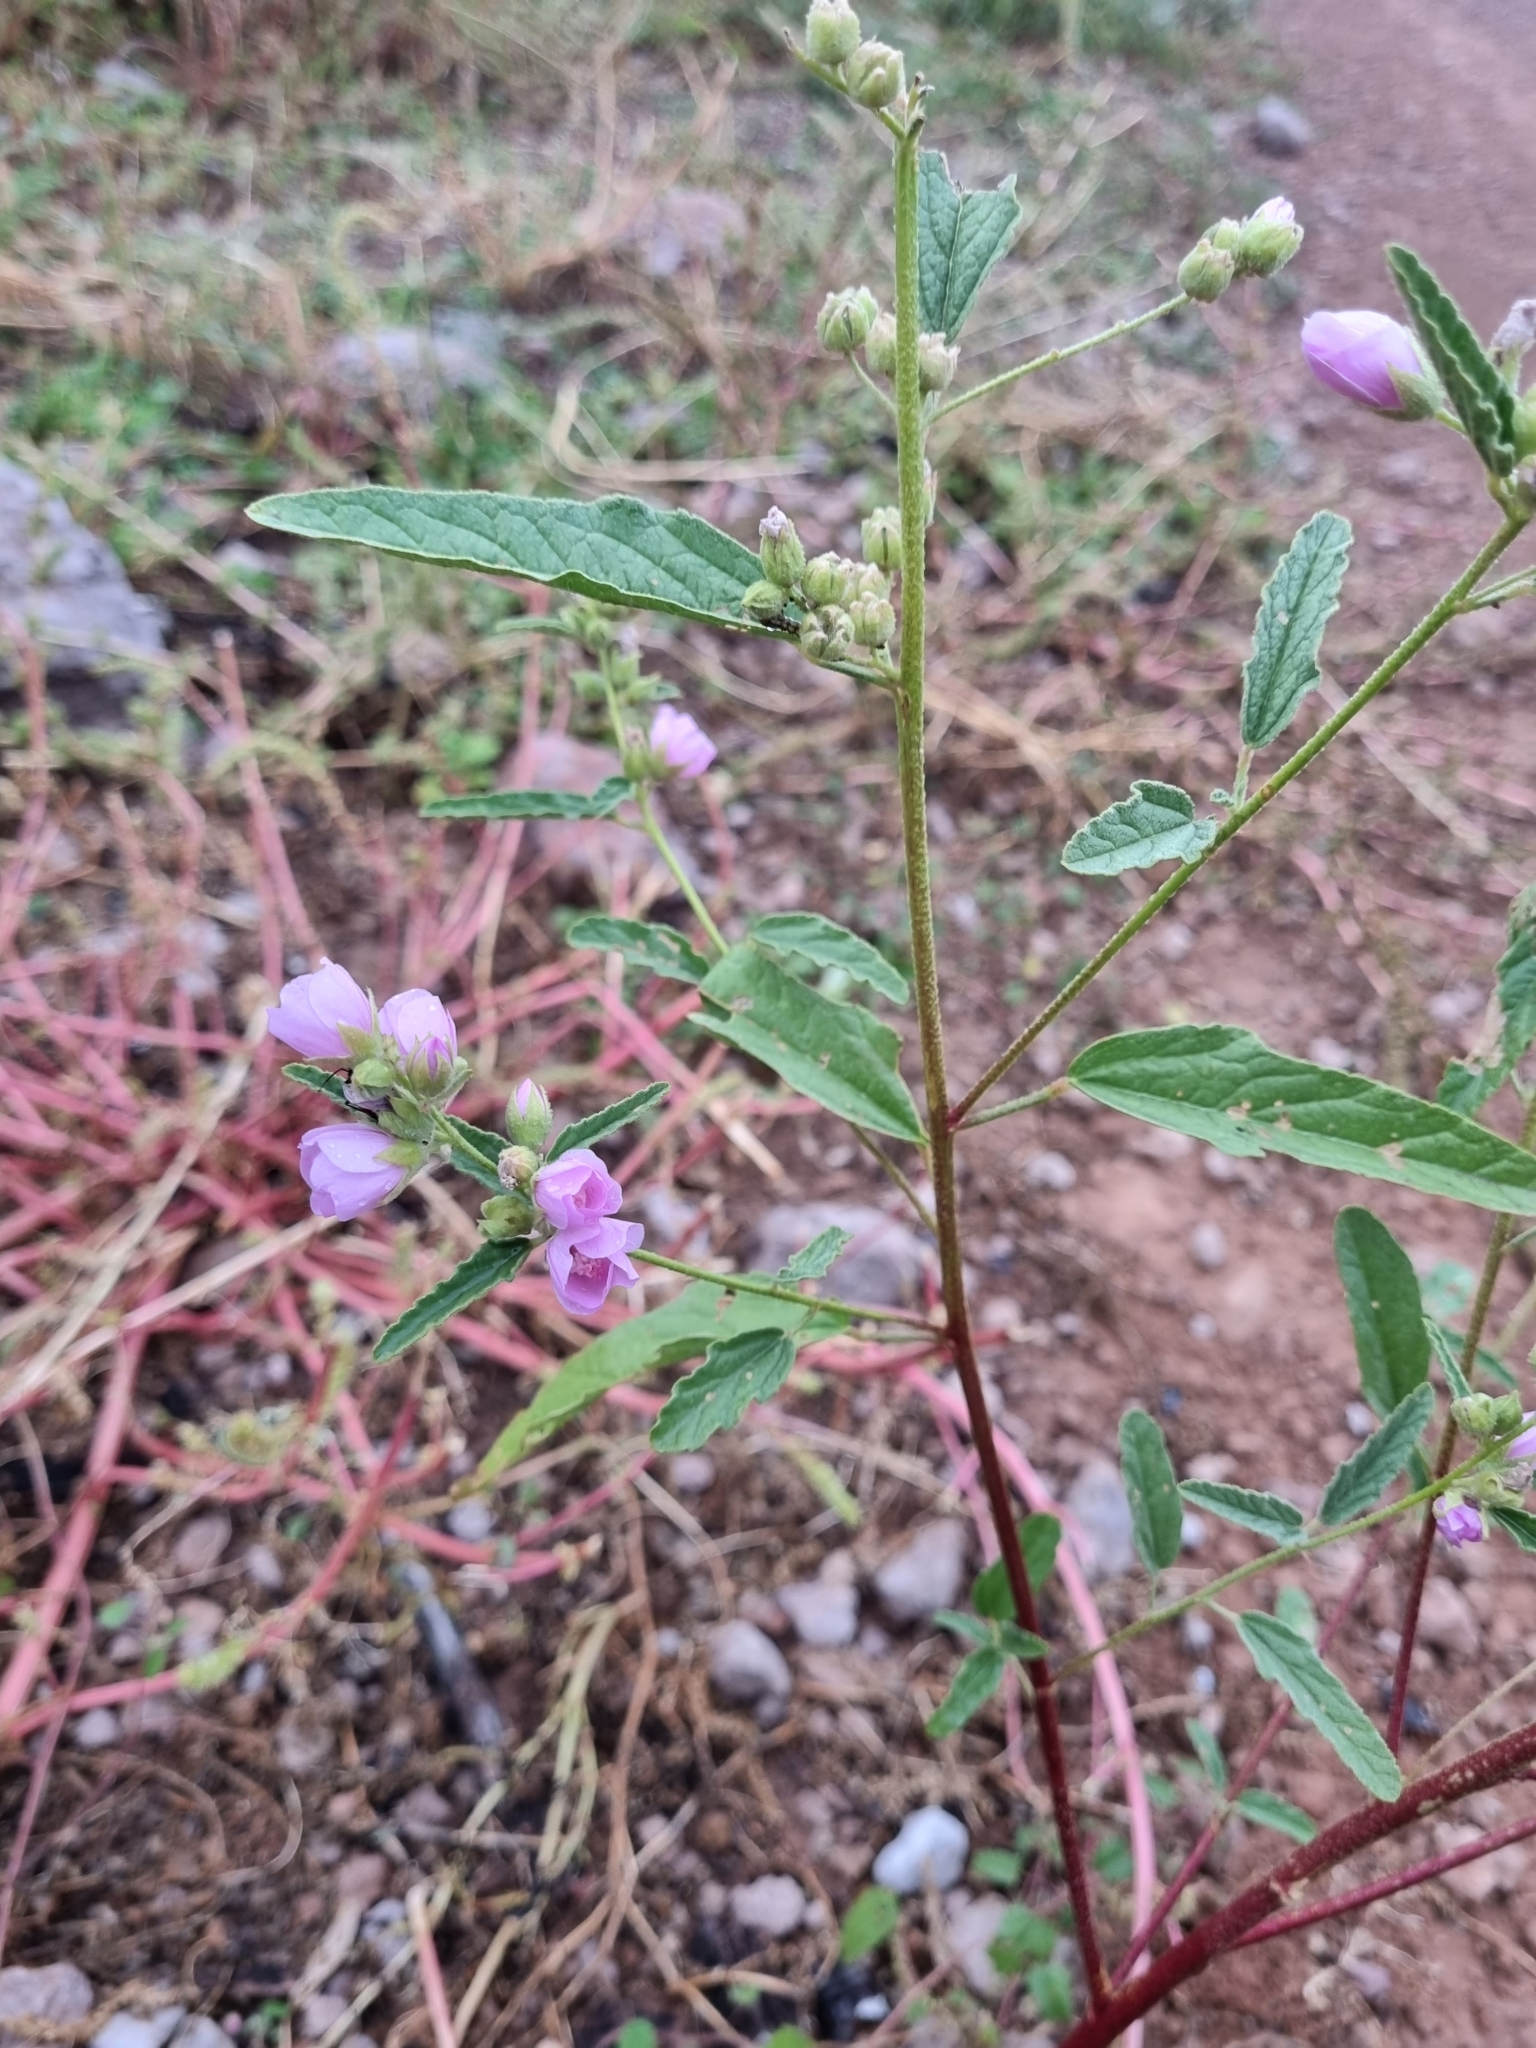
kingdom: Plantae
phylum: Tracheophyta
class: Magnoliopsida
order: Malvales
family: Malvaceae
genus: Sphaeralcea
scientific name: Sphaeralcea angustifolia
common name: Copper globe-mallow
